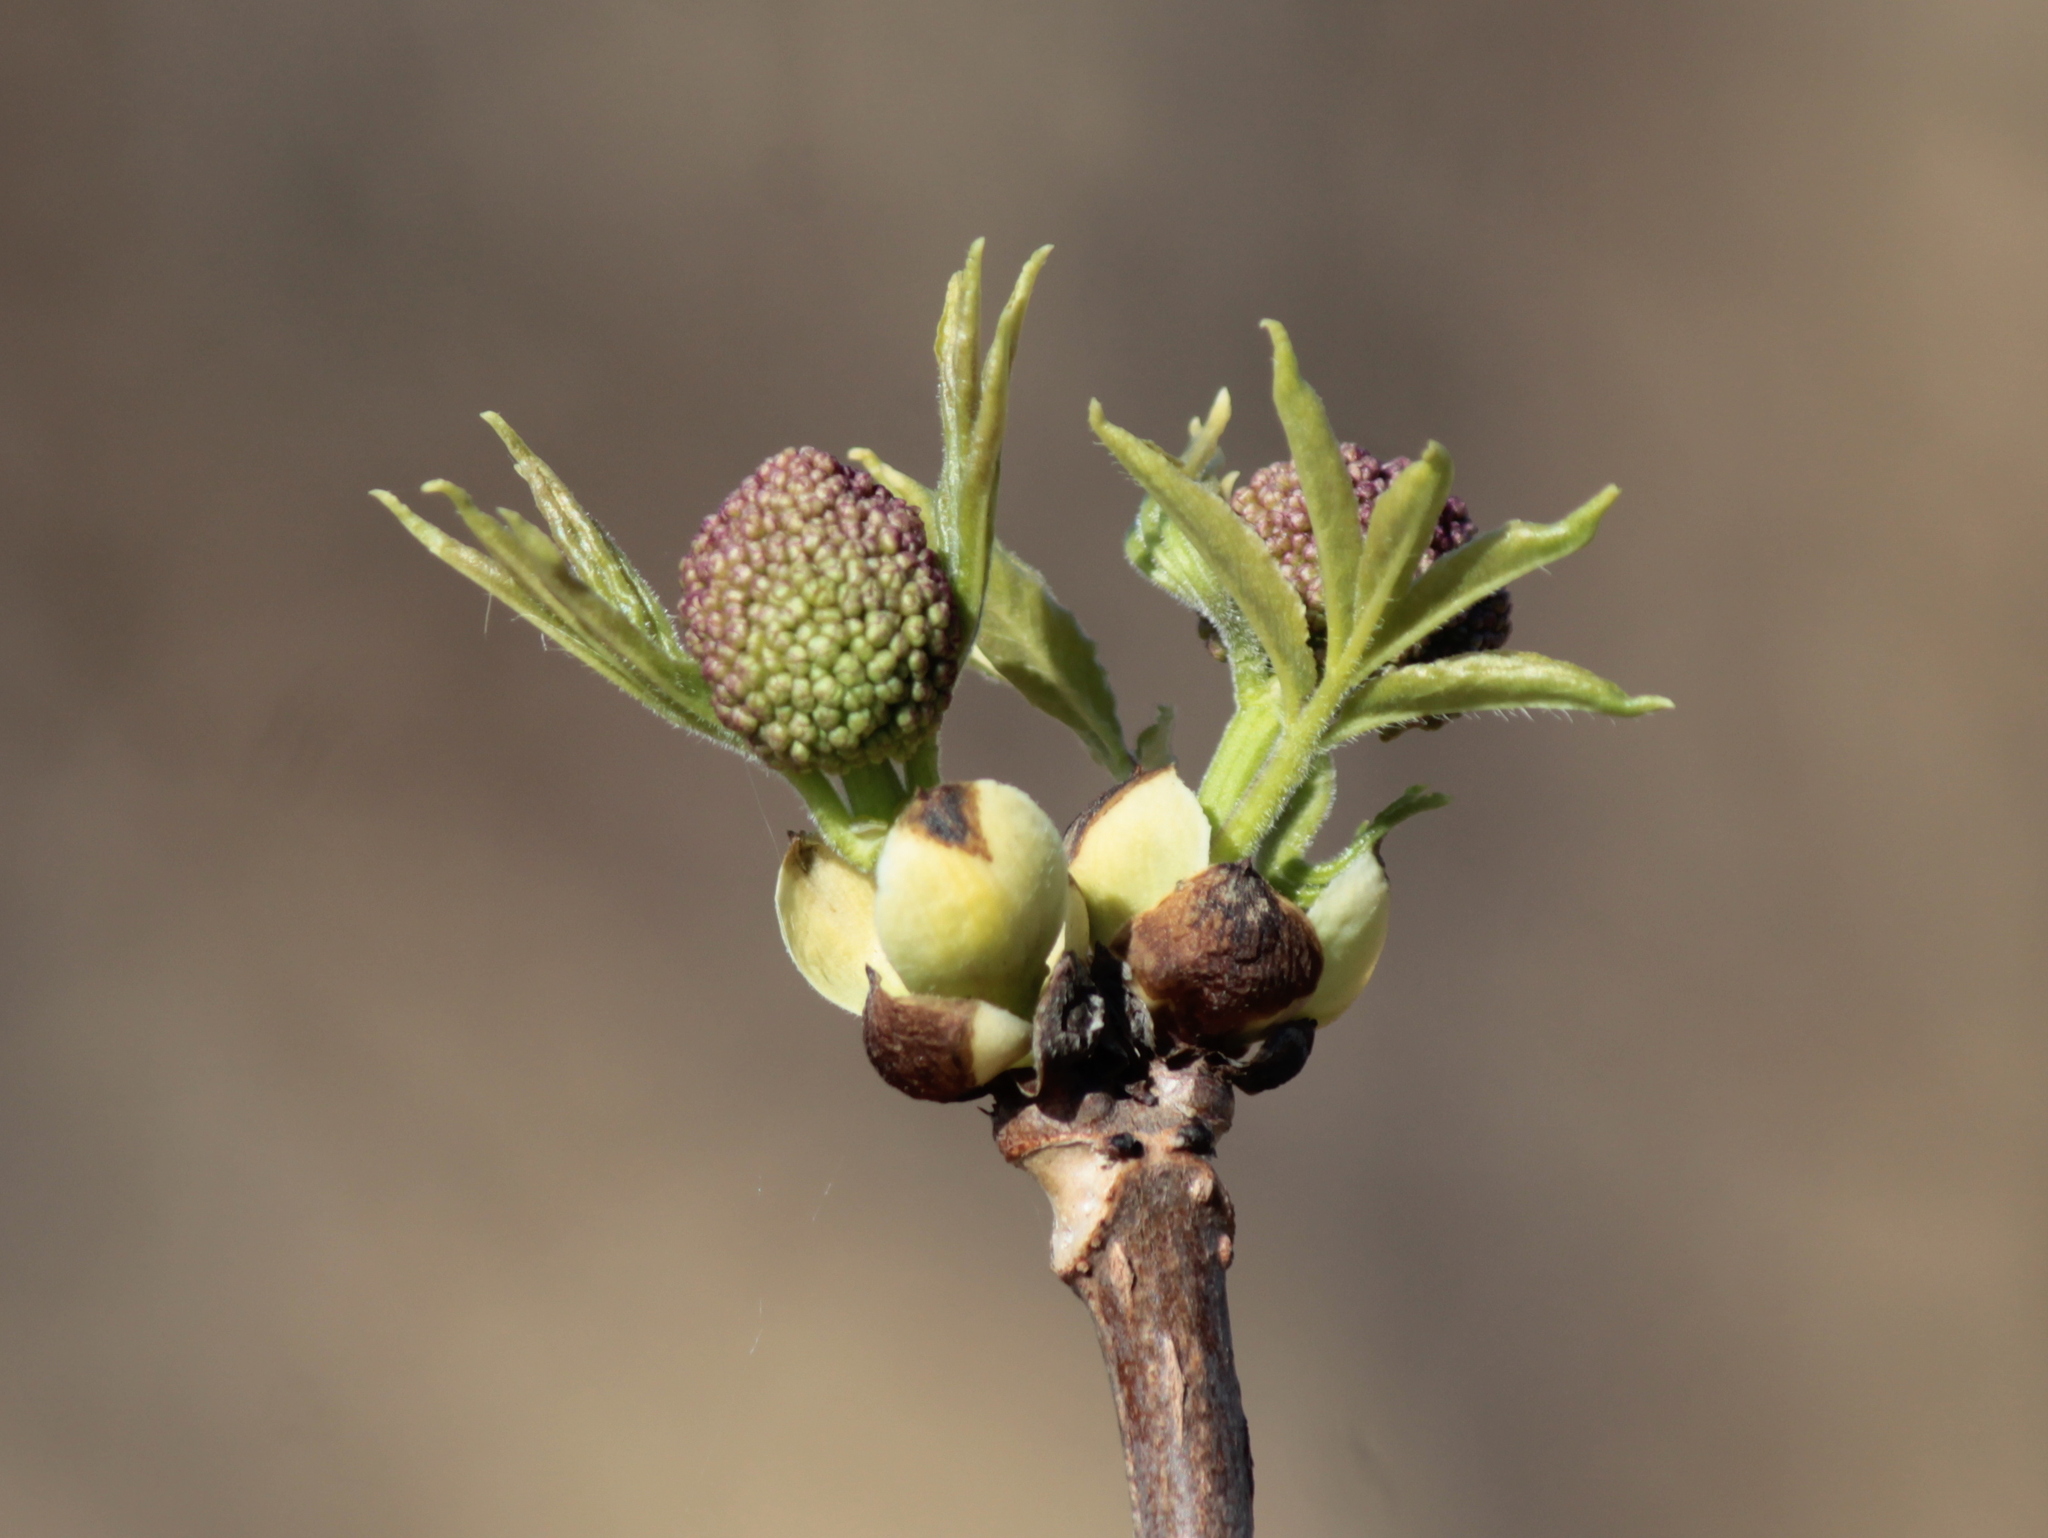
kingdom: Plantae
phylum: Tracheophyta
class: Magnoliopsida
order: Dipsacales
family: Viburnaceae
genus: Sambucus
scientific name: Sambucus racemosa
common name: Red-berried elder
